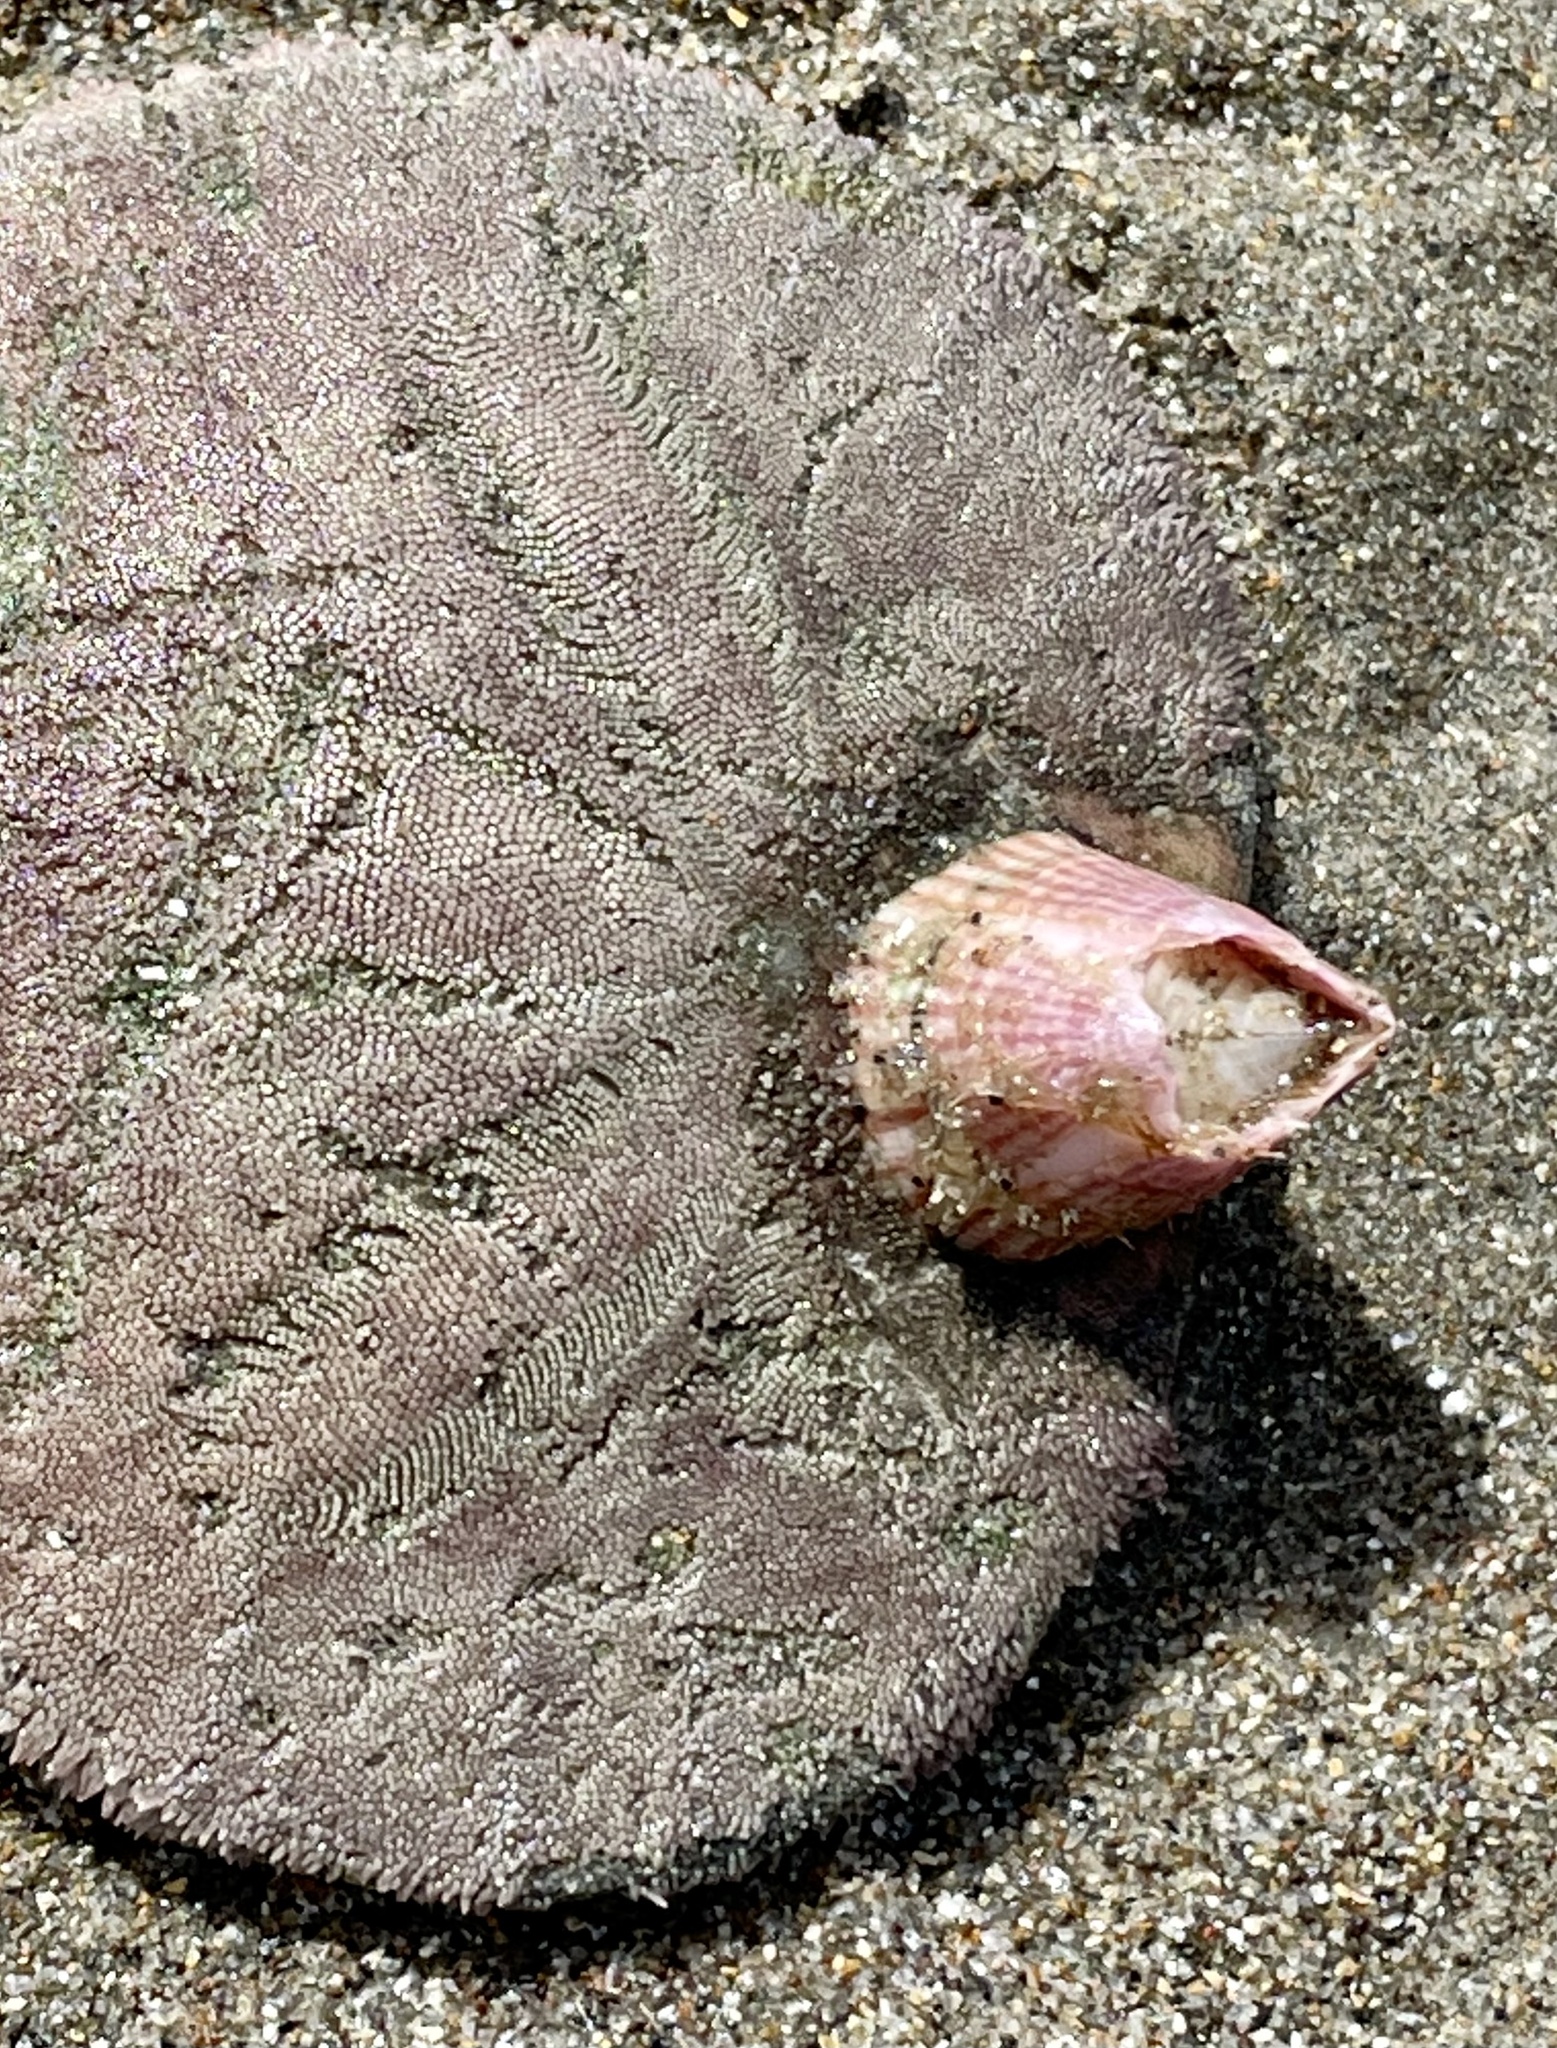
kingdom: Animalia
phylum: Arthropoda
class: Maxillopoda
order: Sessilia
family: Balanidae
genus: Paraconcavus
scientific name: Paraconcavus pacificus
